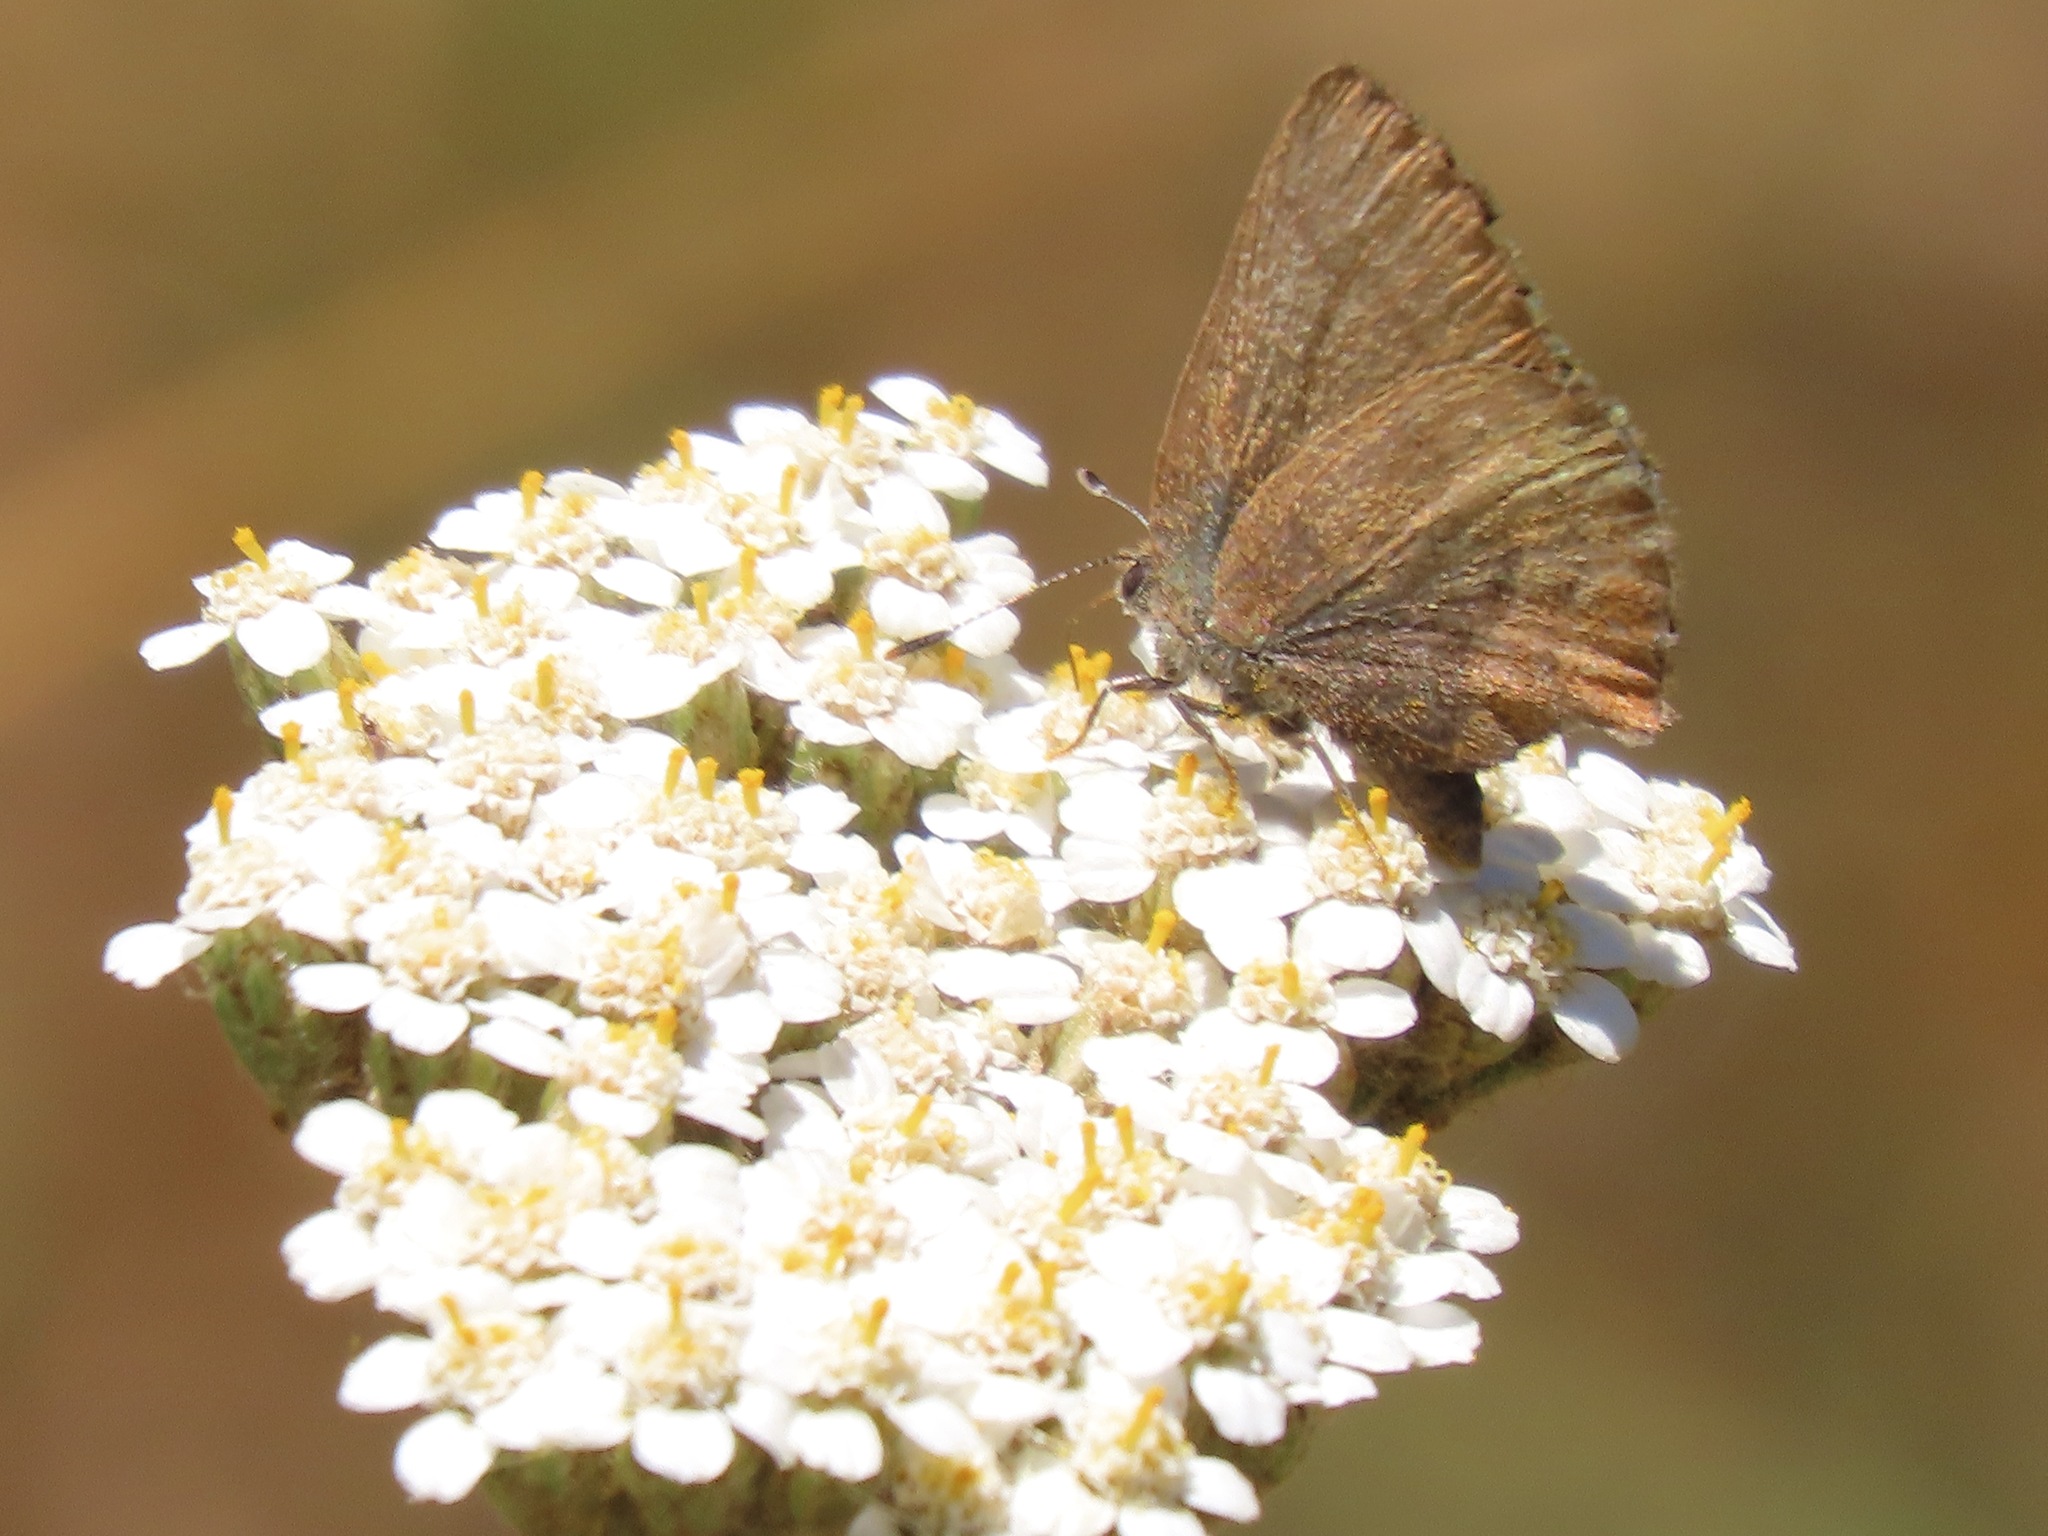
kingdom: Animalia
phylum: Arthropoda
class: Insecta
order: Lepidoptera
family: Lycaenidae
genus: Incisalia
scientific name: Incisalia irioides
